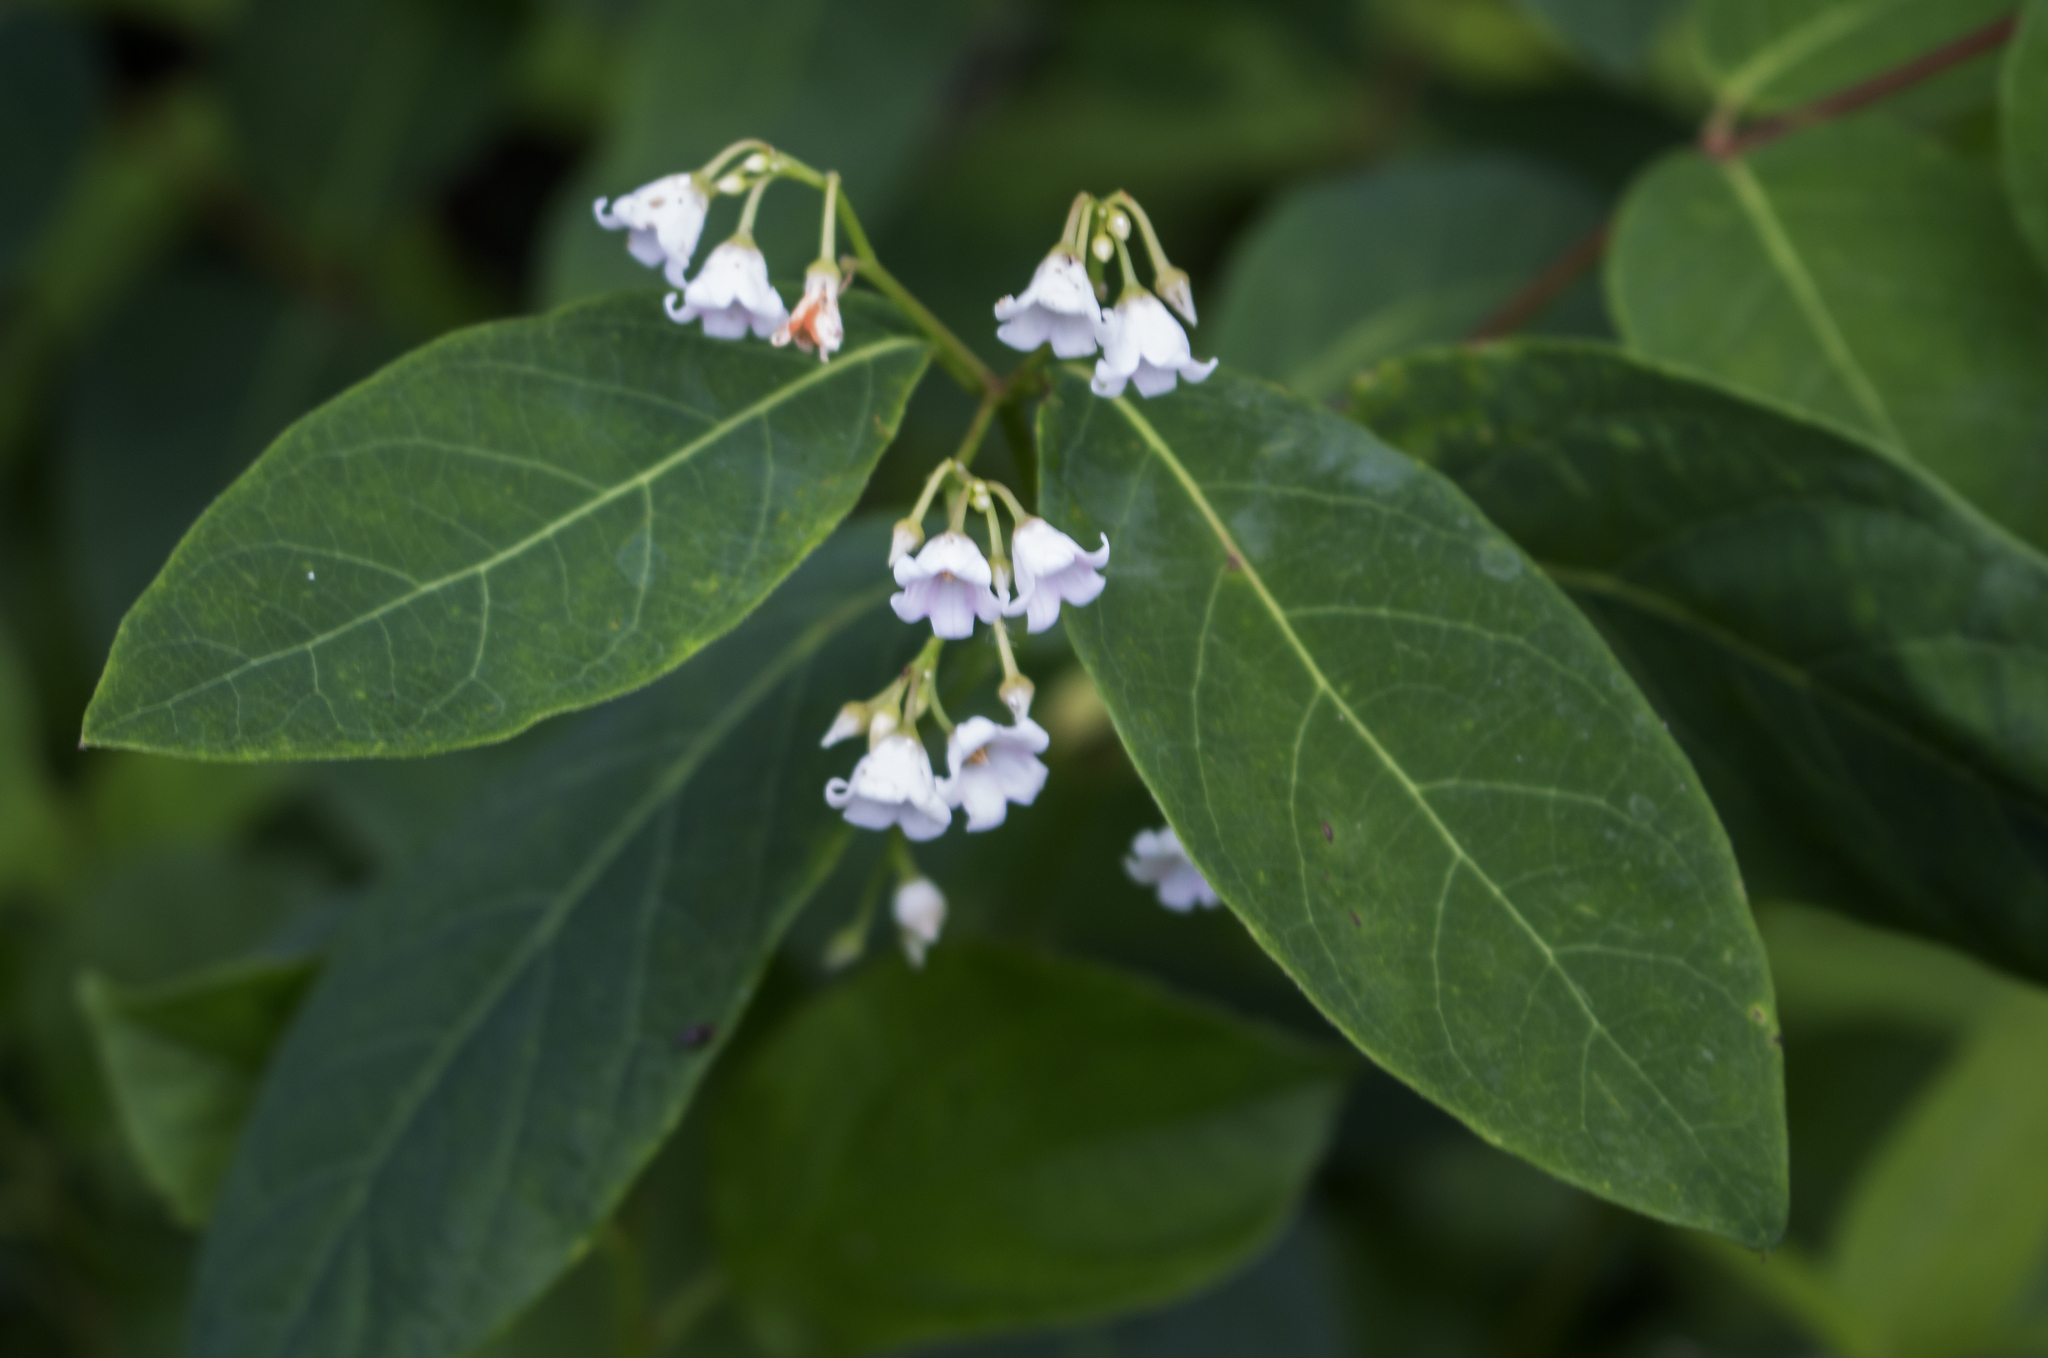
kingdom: Plantae
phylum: Tracheophyta
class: Magnoliopsida
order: Gentianales
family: Apocynaceae
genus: Apocynum
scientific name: Apocynum androsaemifolium
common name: Spreading dogbane
